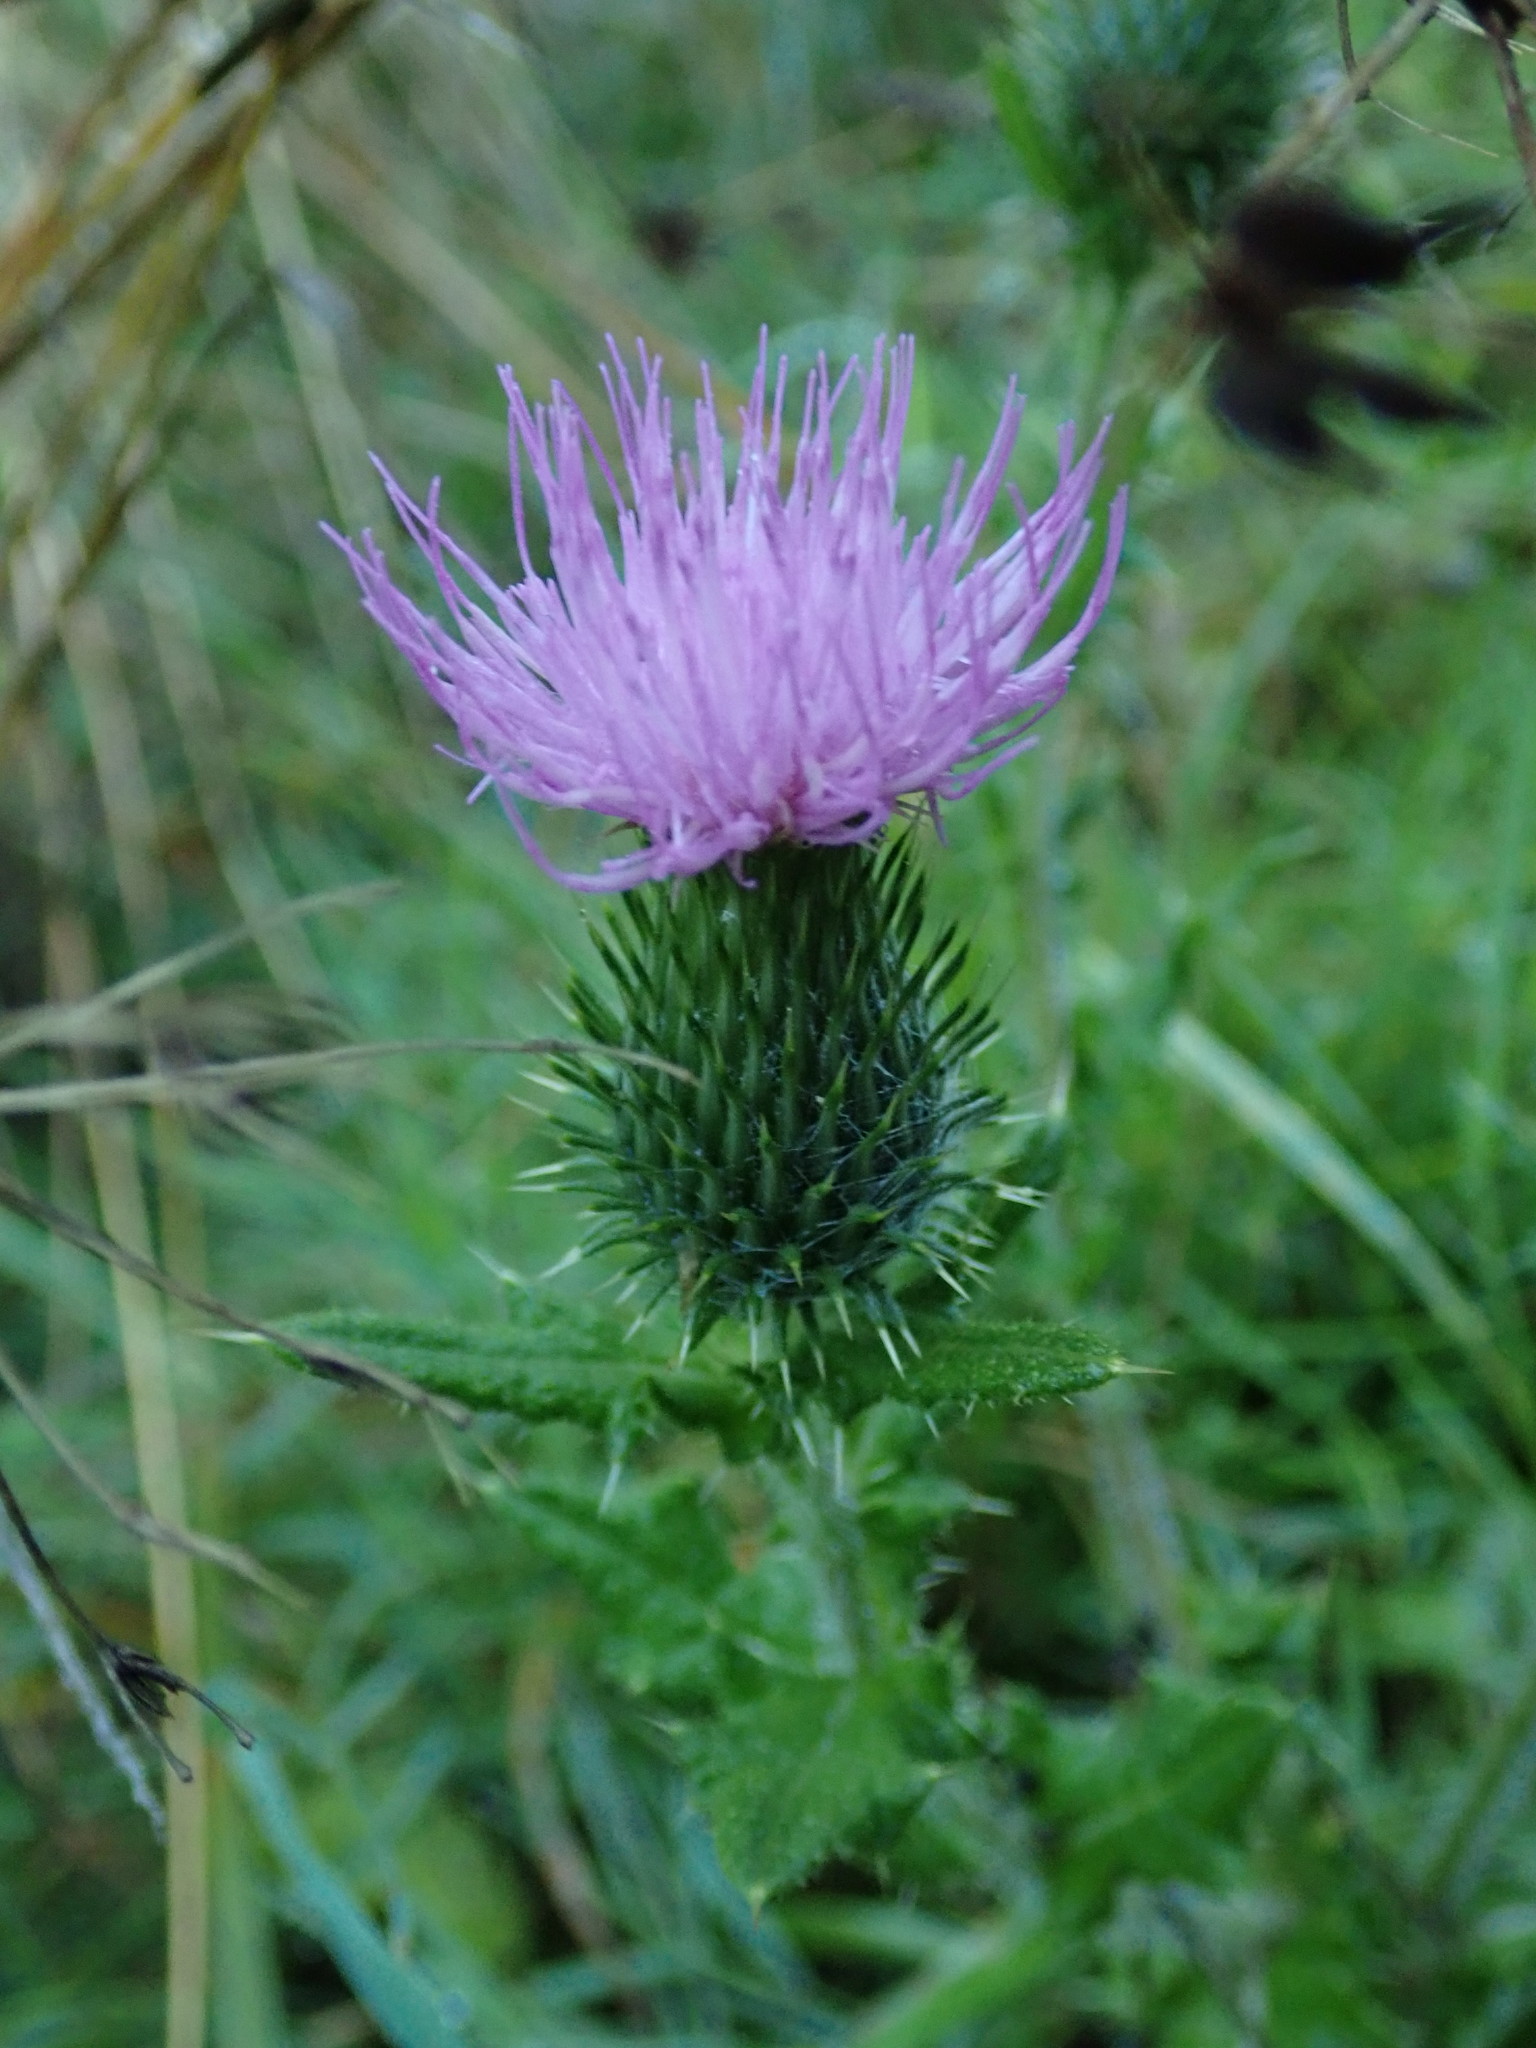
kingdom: Plantae
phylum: Tracheophyta
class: Magnoliopsida
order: Asterales
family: Asteraceae
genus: Cirsium
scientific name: Cirsium vulgare
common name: Bull thistle
